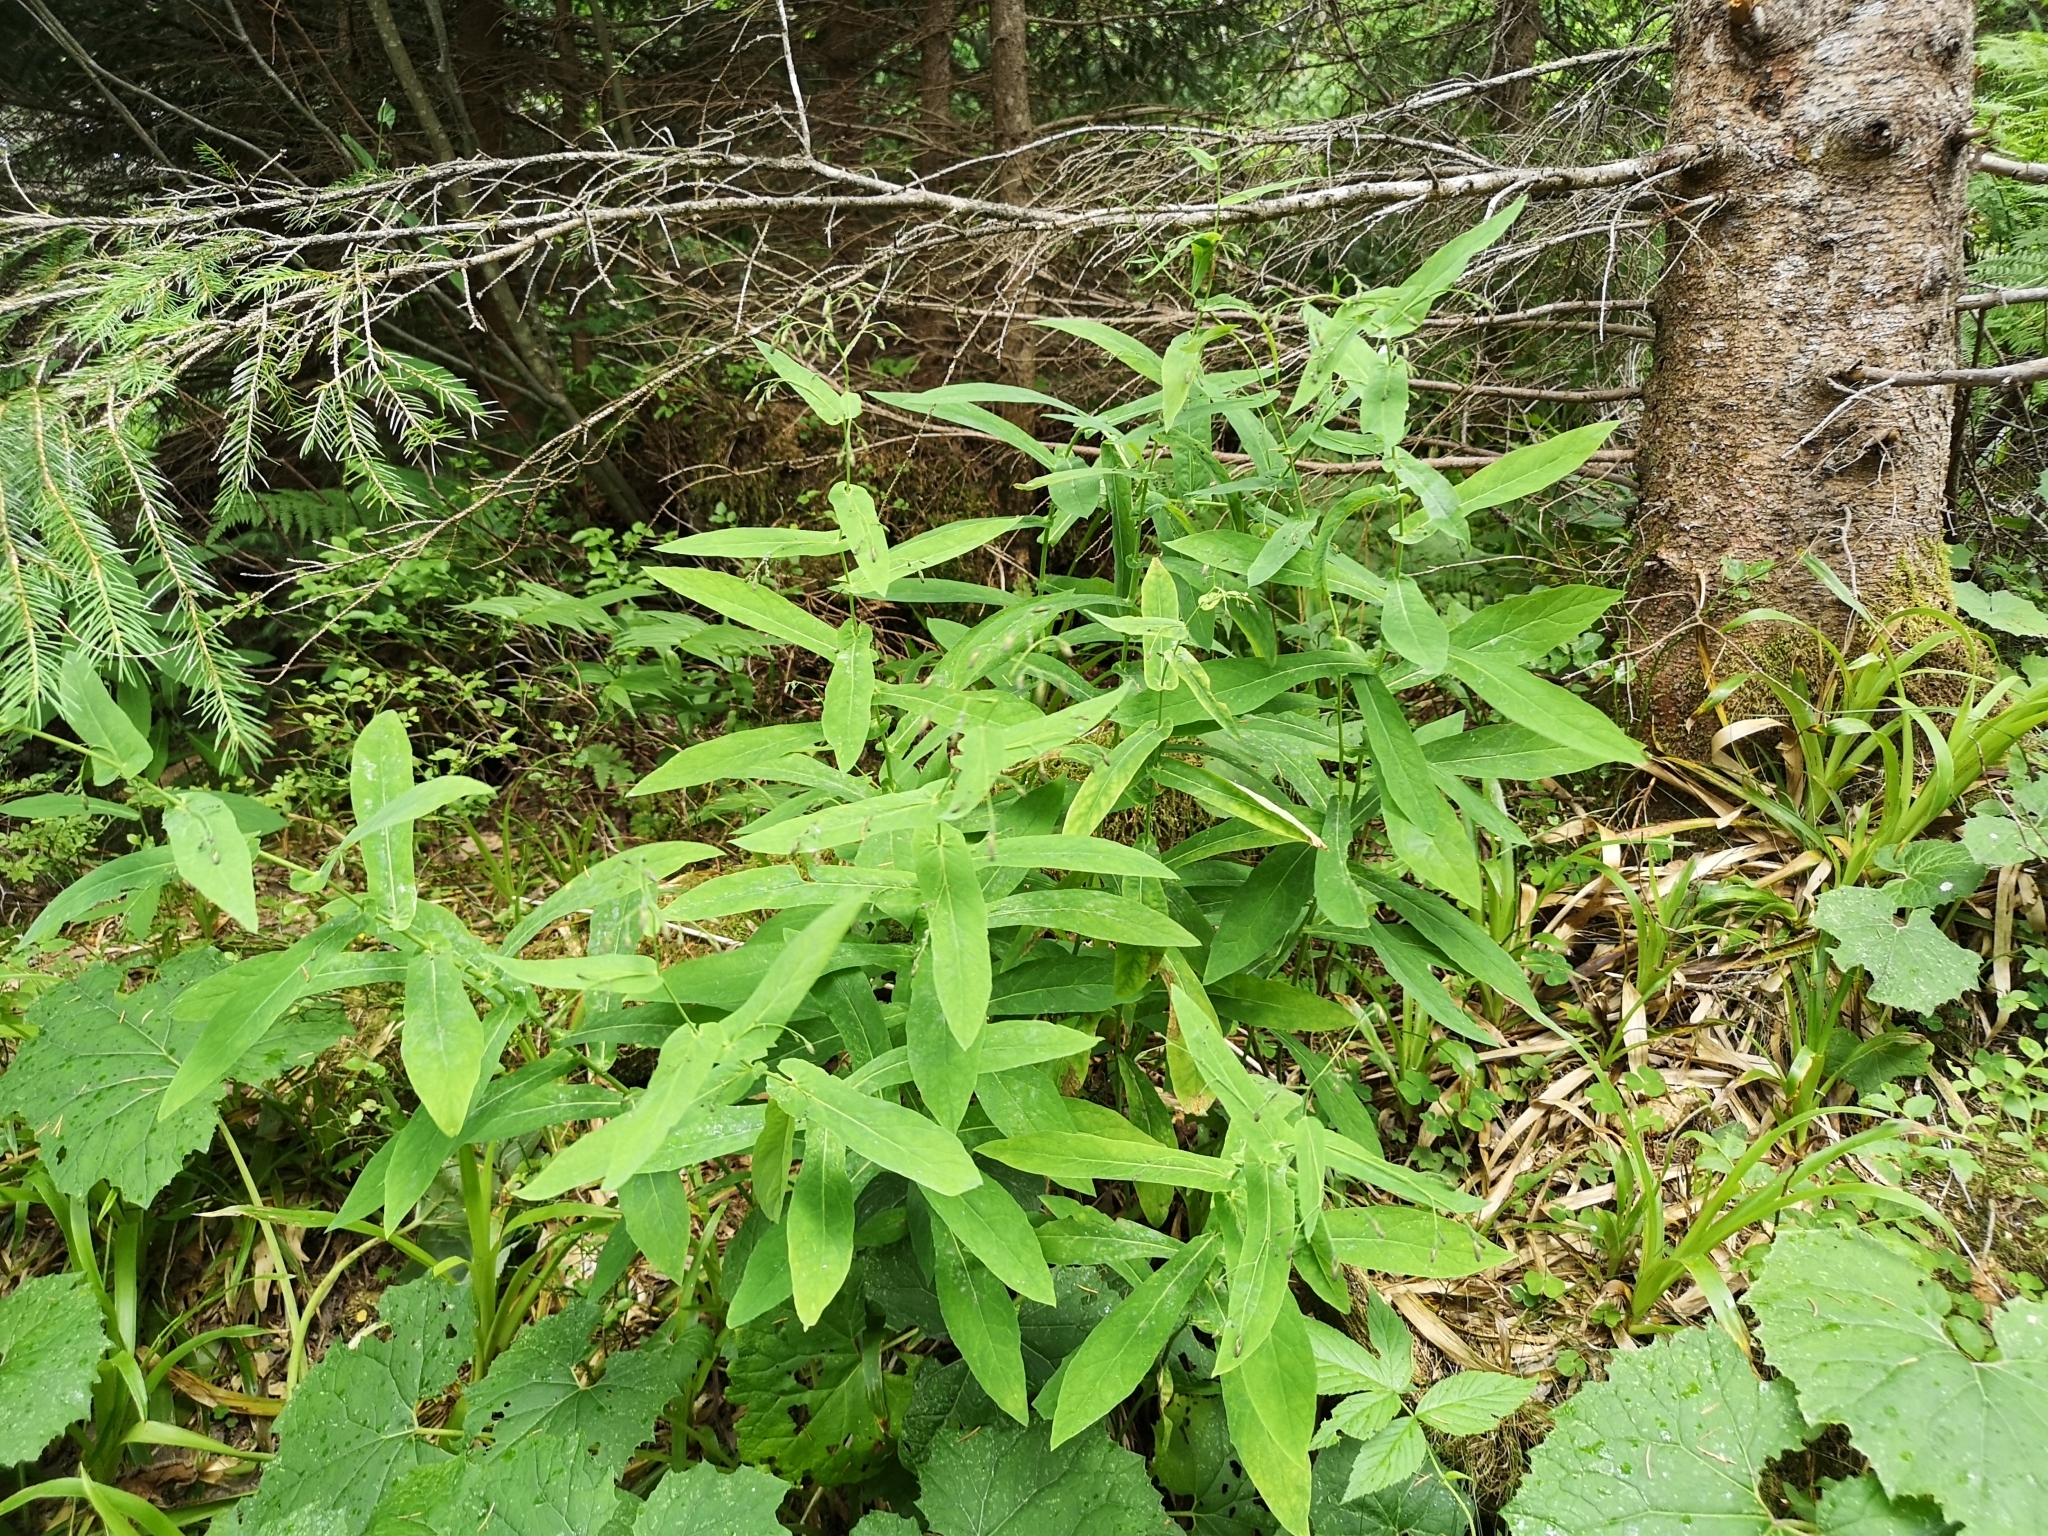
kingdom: Plantae
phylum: Tracheophyta
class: Magnoliopsida
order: Asterales
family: Asteraceae
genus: Prenanthes
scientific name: Prenanthes purpurea
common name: Purple lettuce
